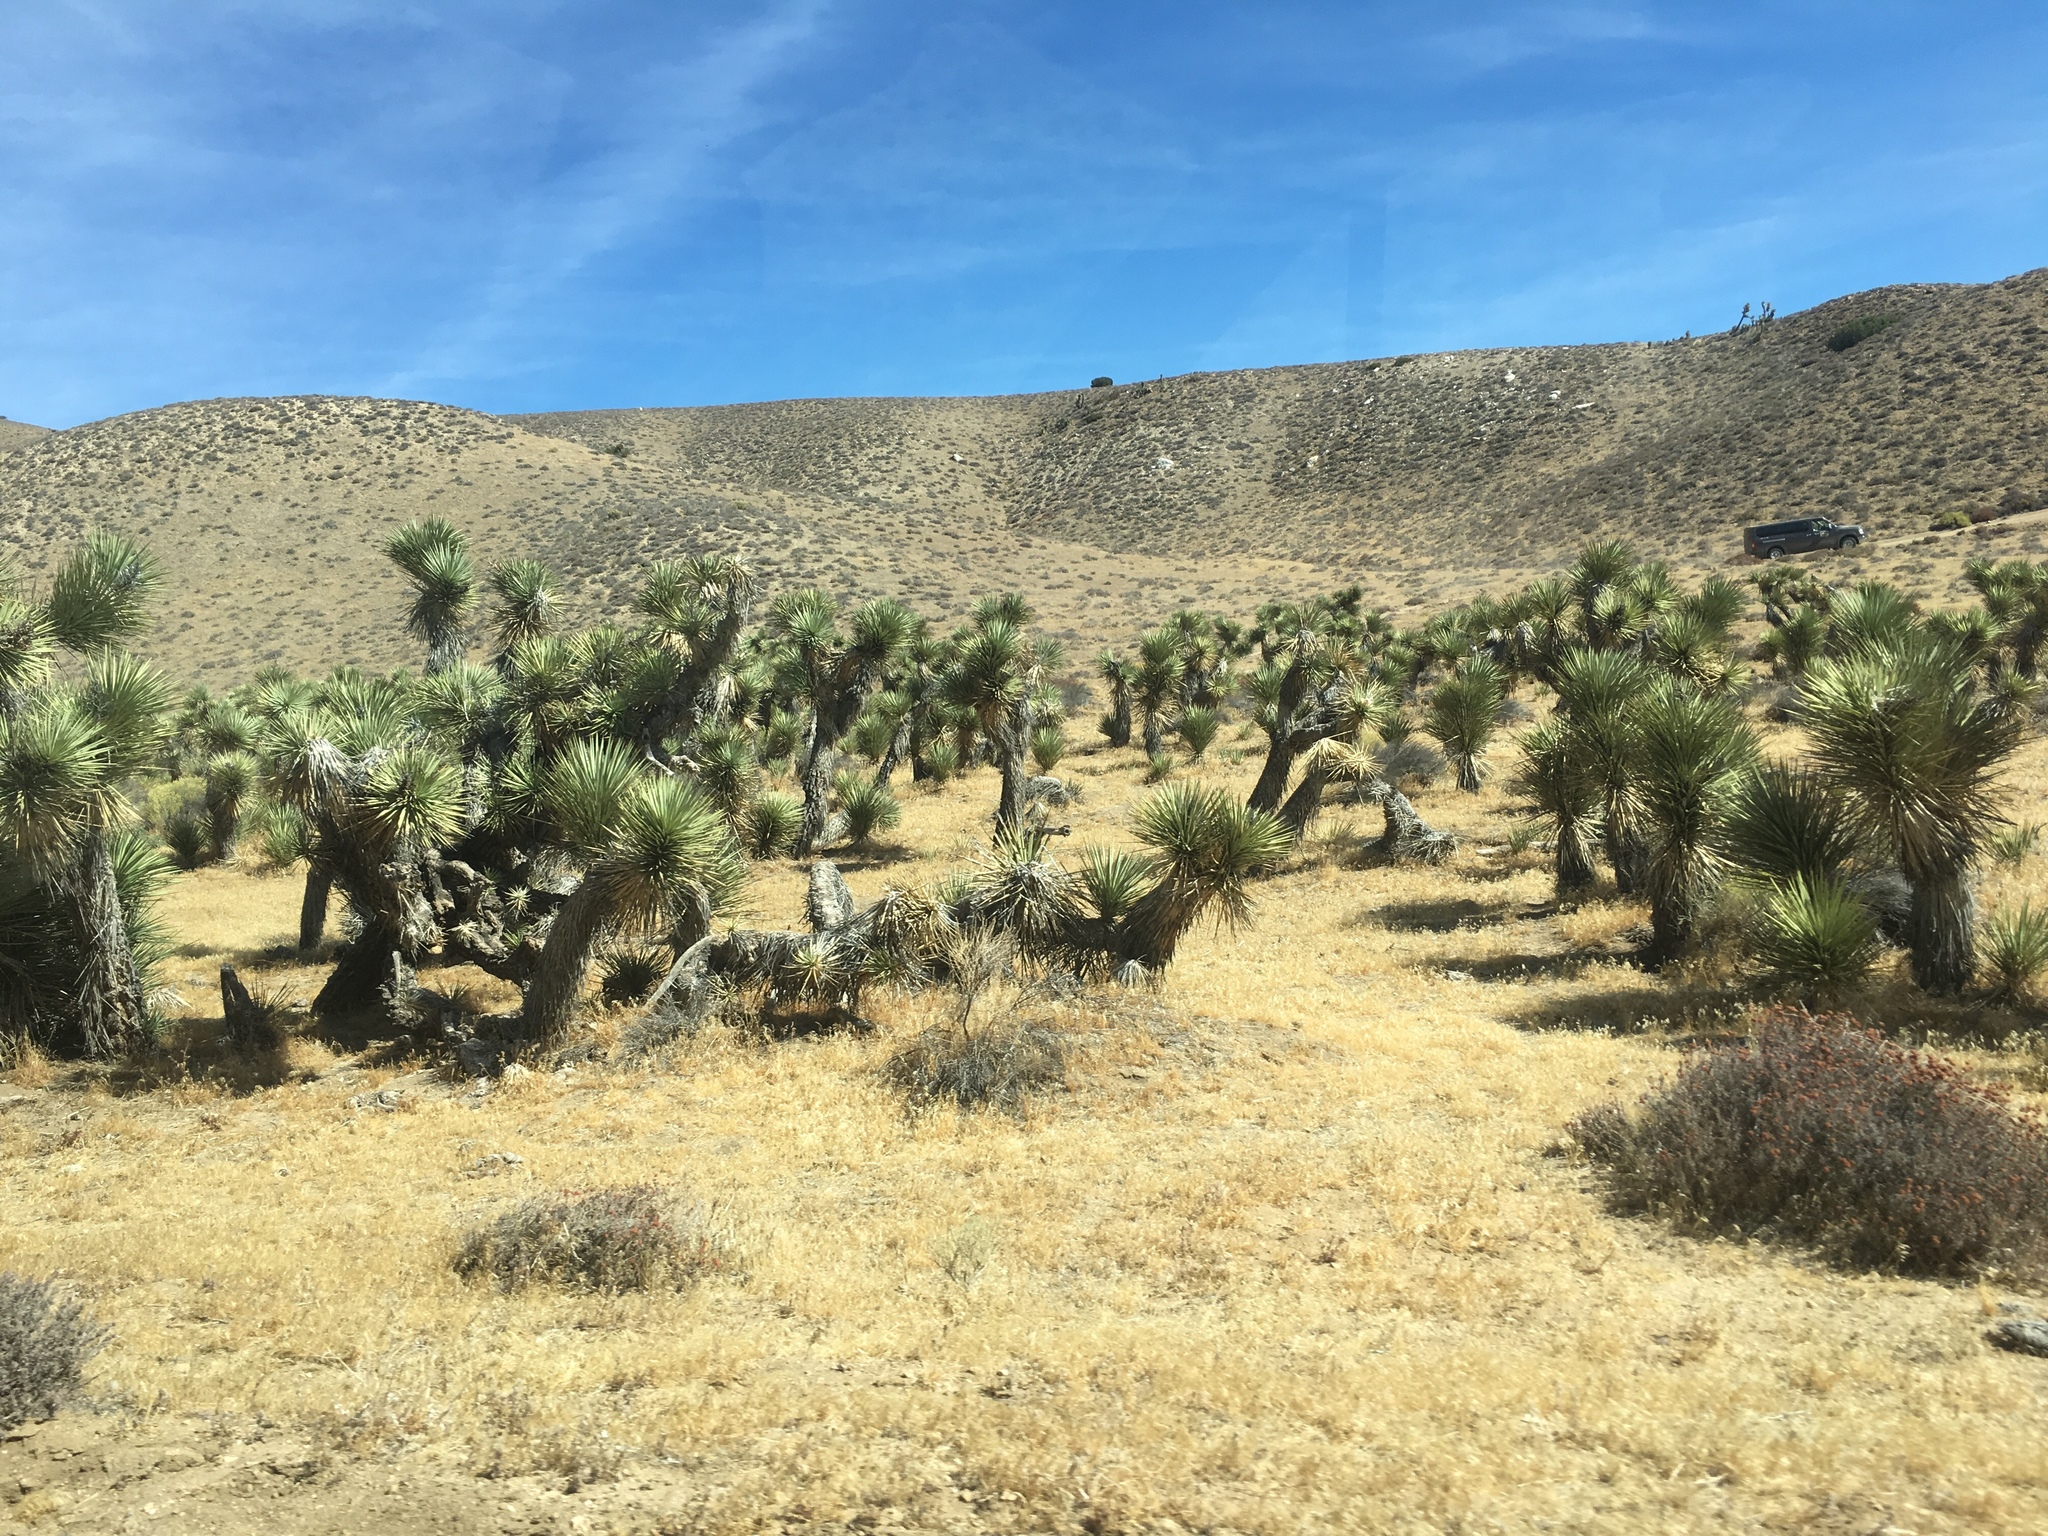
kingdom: Plantae
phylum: Tracheophyta
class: Liliopsida
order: Asparagales
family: Asparagaceae
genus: Yucca
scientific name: Yucca brevifolia
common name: Joshua tree
